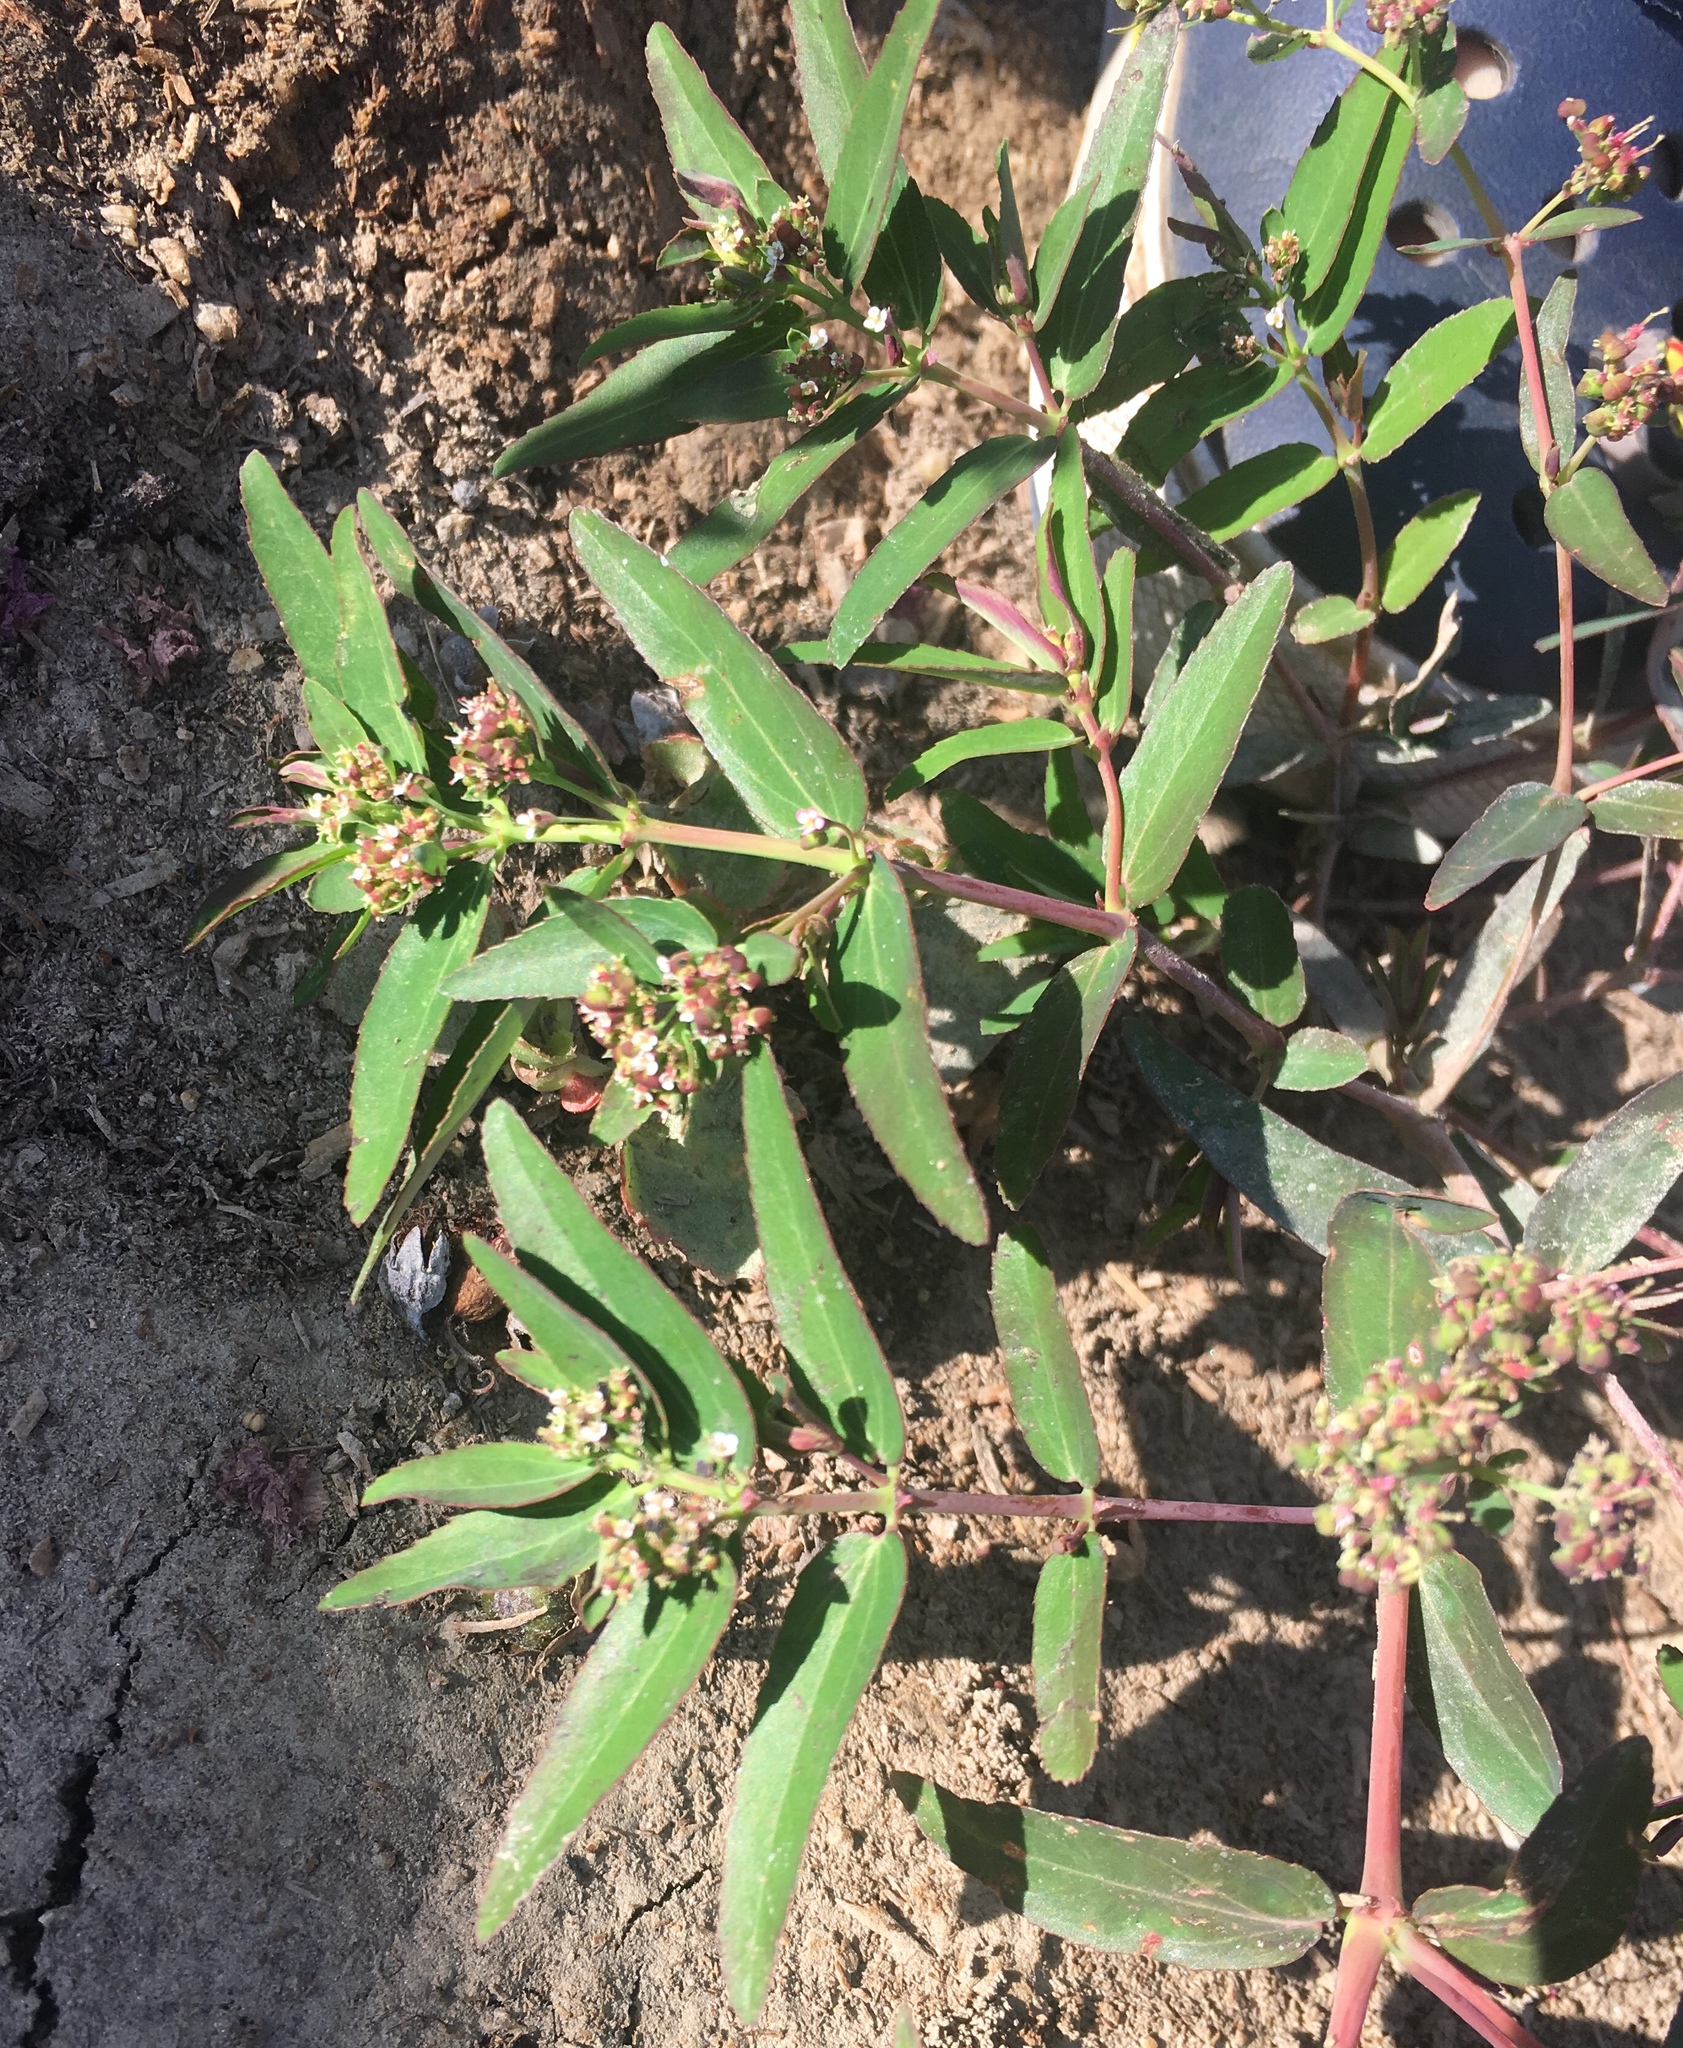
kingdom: Plantae
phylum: Tracheophyta
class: Magnoliopsida
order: Malpighiales
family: Euphorbiaceae
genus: Euphorbia
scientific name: Euphorbia hypericifolia
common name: Graceful sandmat
